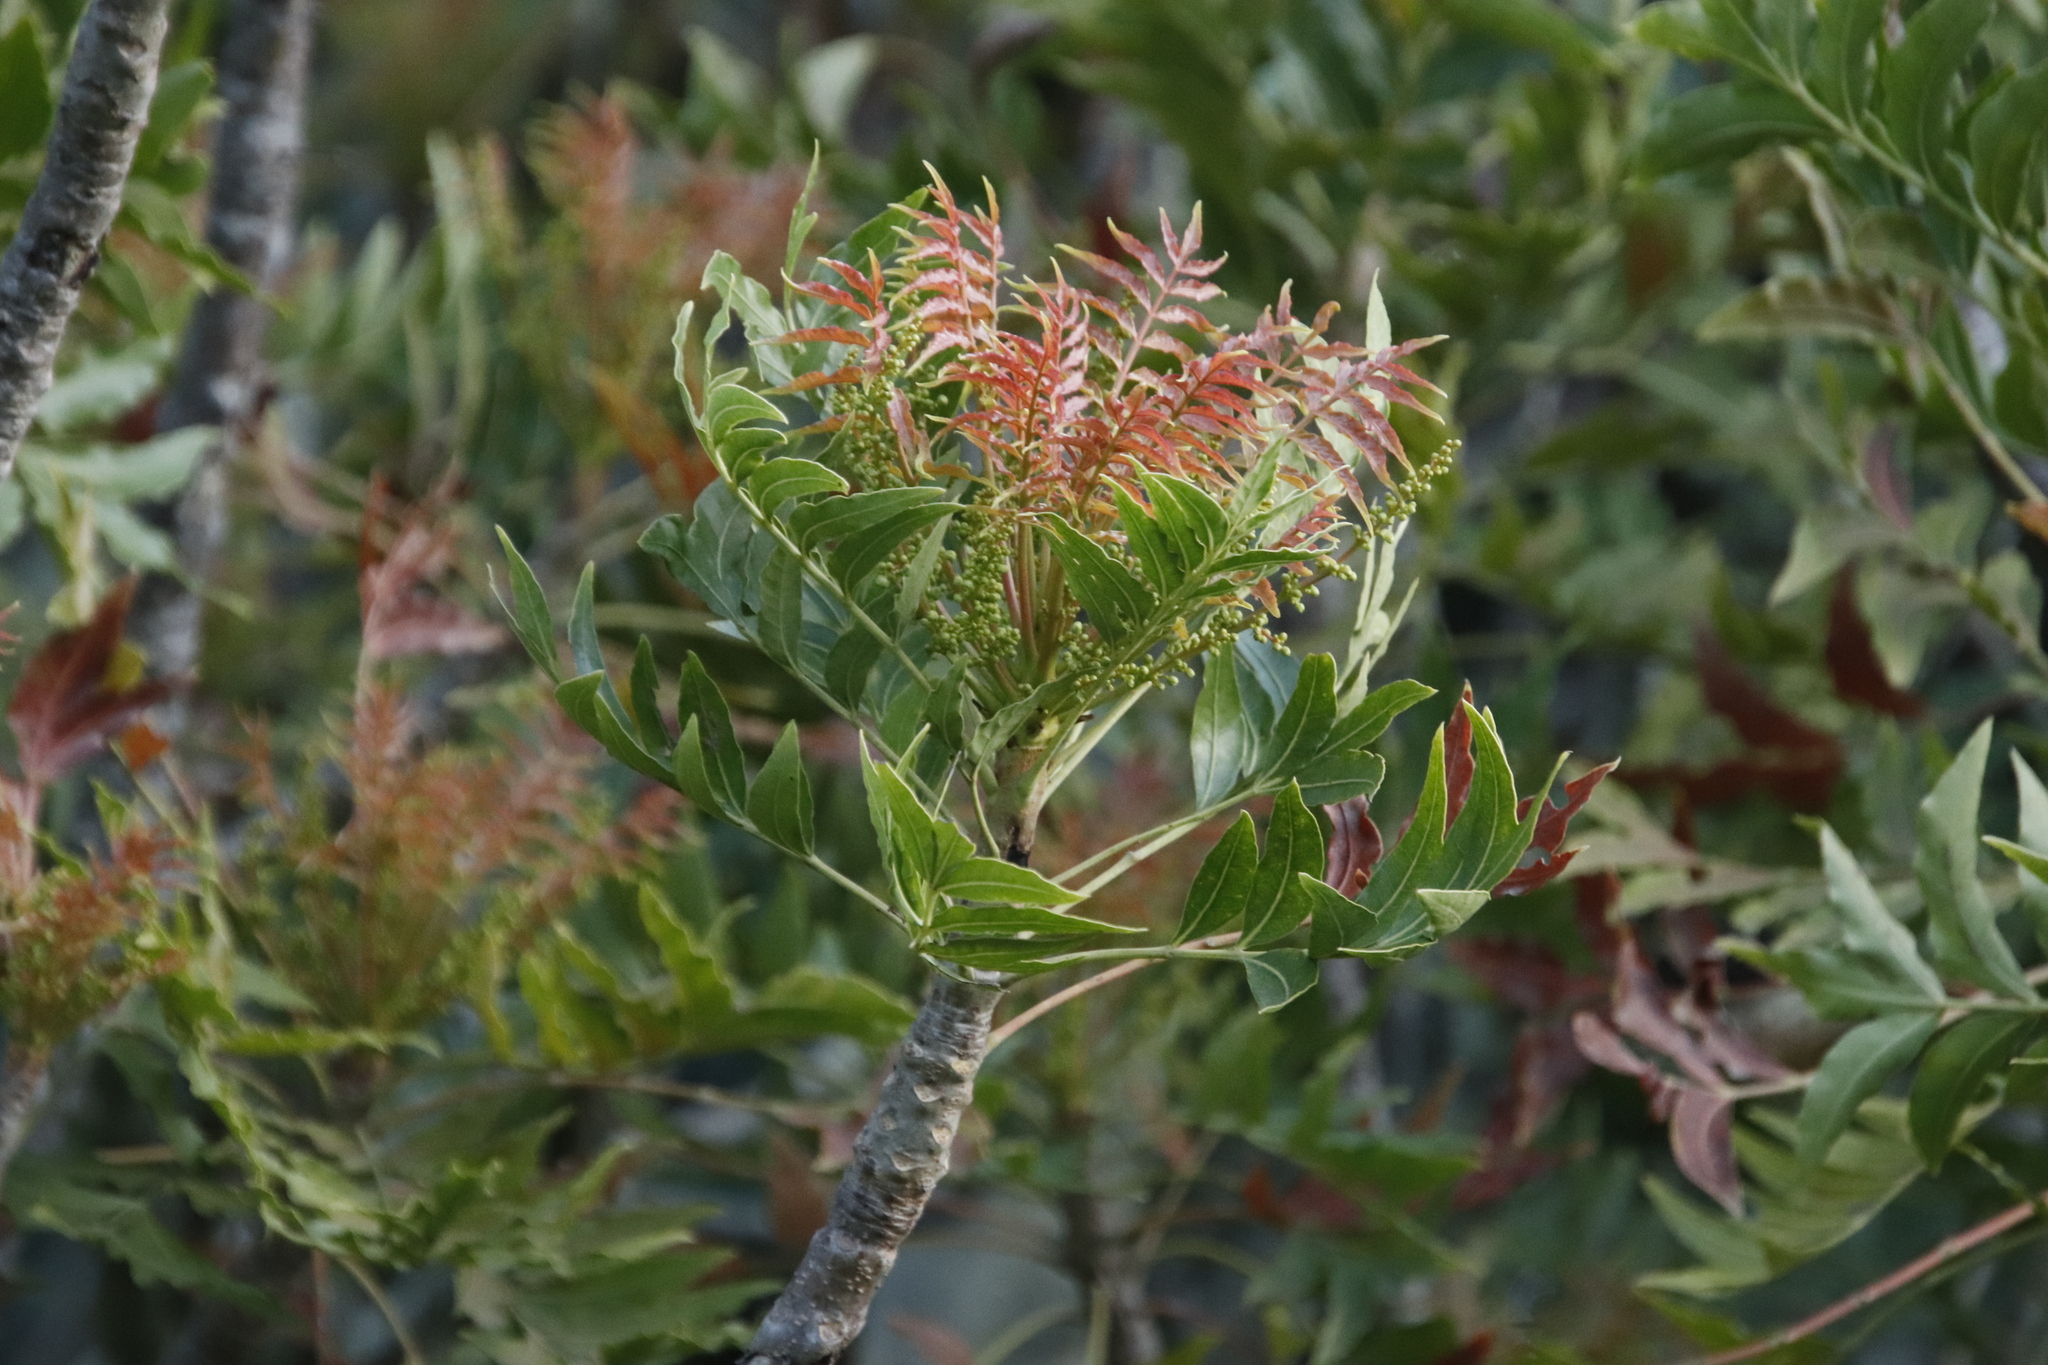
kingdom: Plantae
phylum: Tracheophyta
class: Magnoliopsida
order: Sapindales
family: Anacardiaceae
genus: Harpephyllum
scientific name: Harpephyllum caffrum
